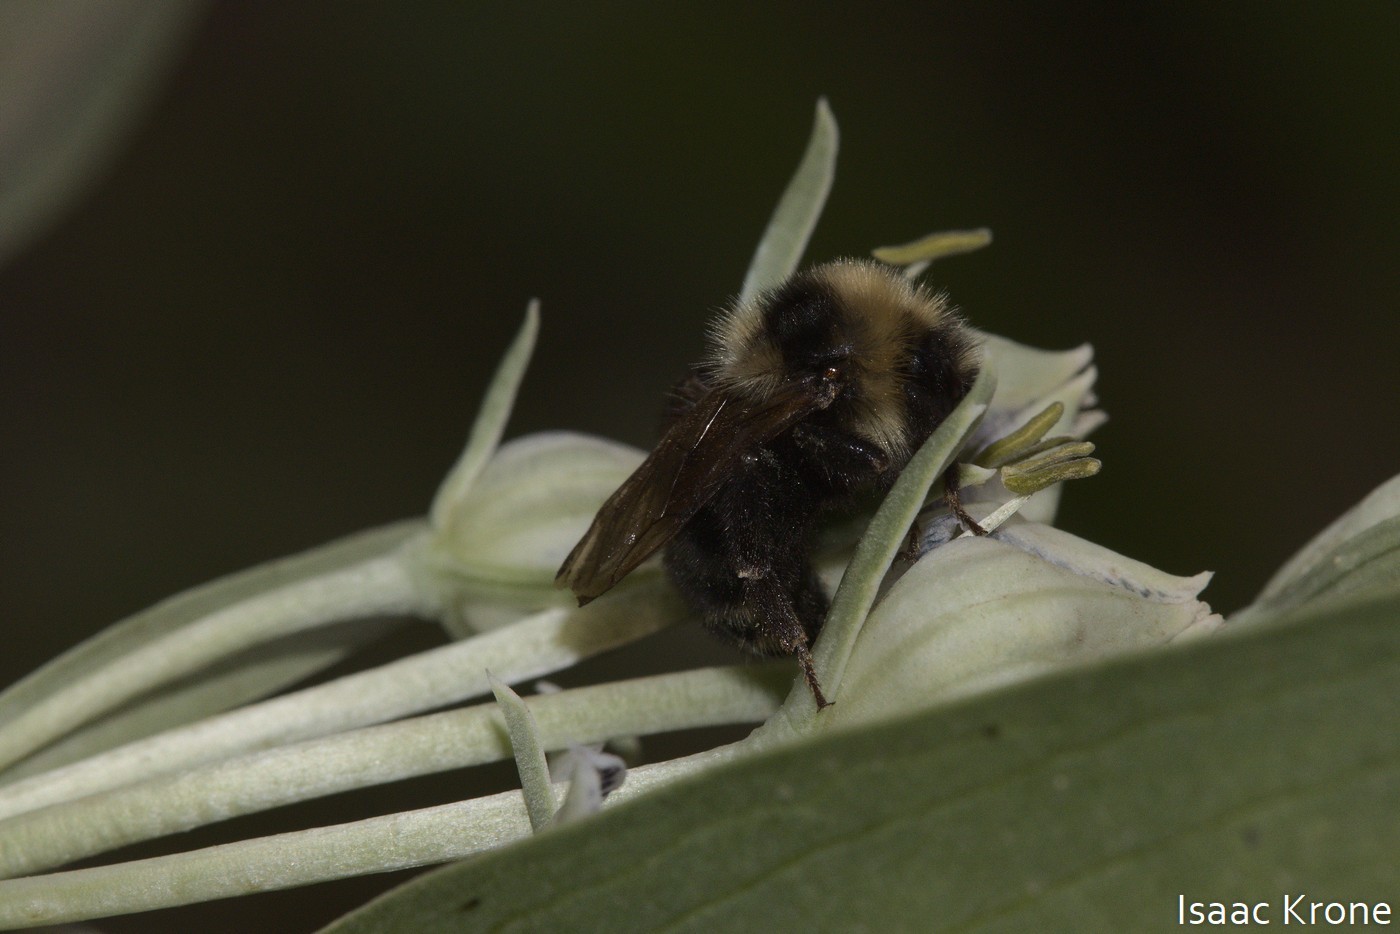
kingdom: Animalia
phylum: Arthropoda
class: Insecta
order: Hymenoptera
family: Apidae
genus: Bombus
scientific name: Bombus insularis
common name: Indiscriminate cuckoo bumble bee
